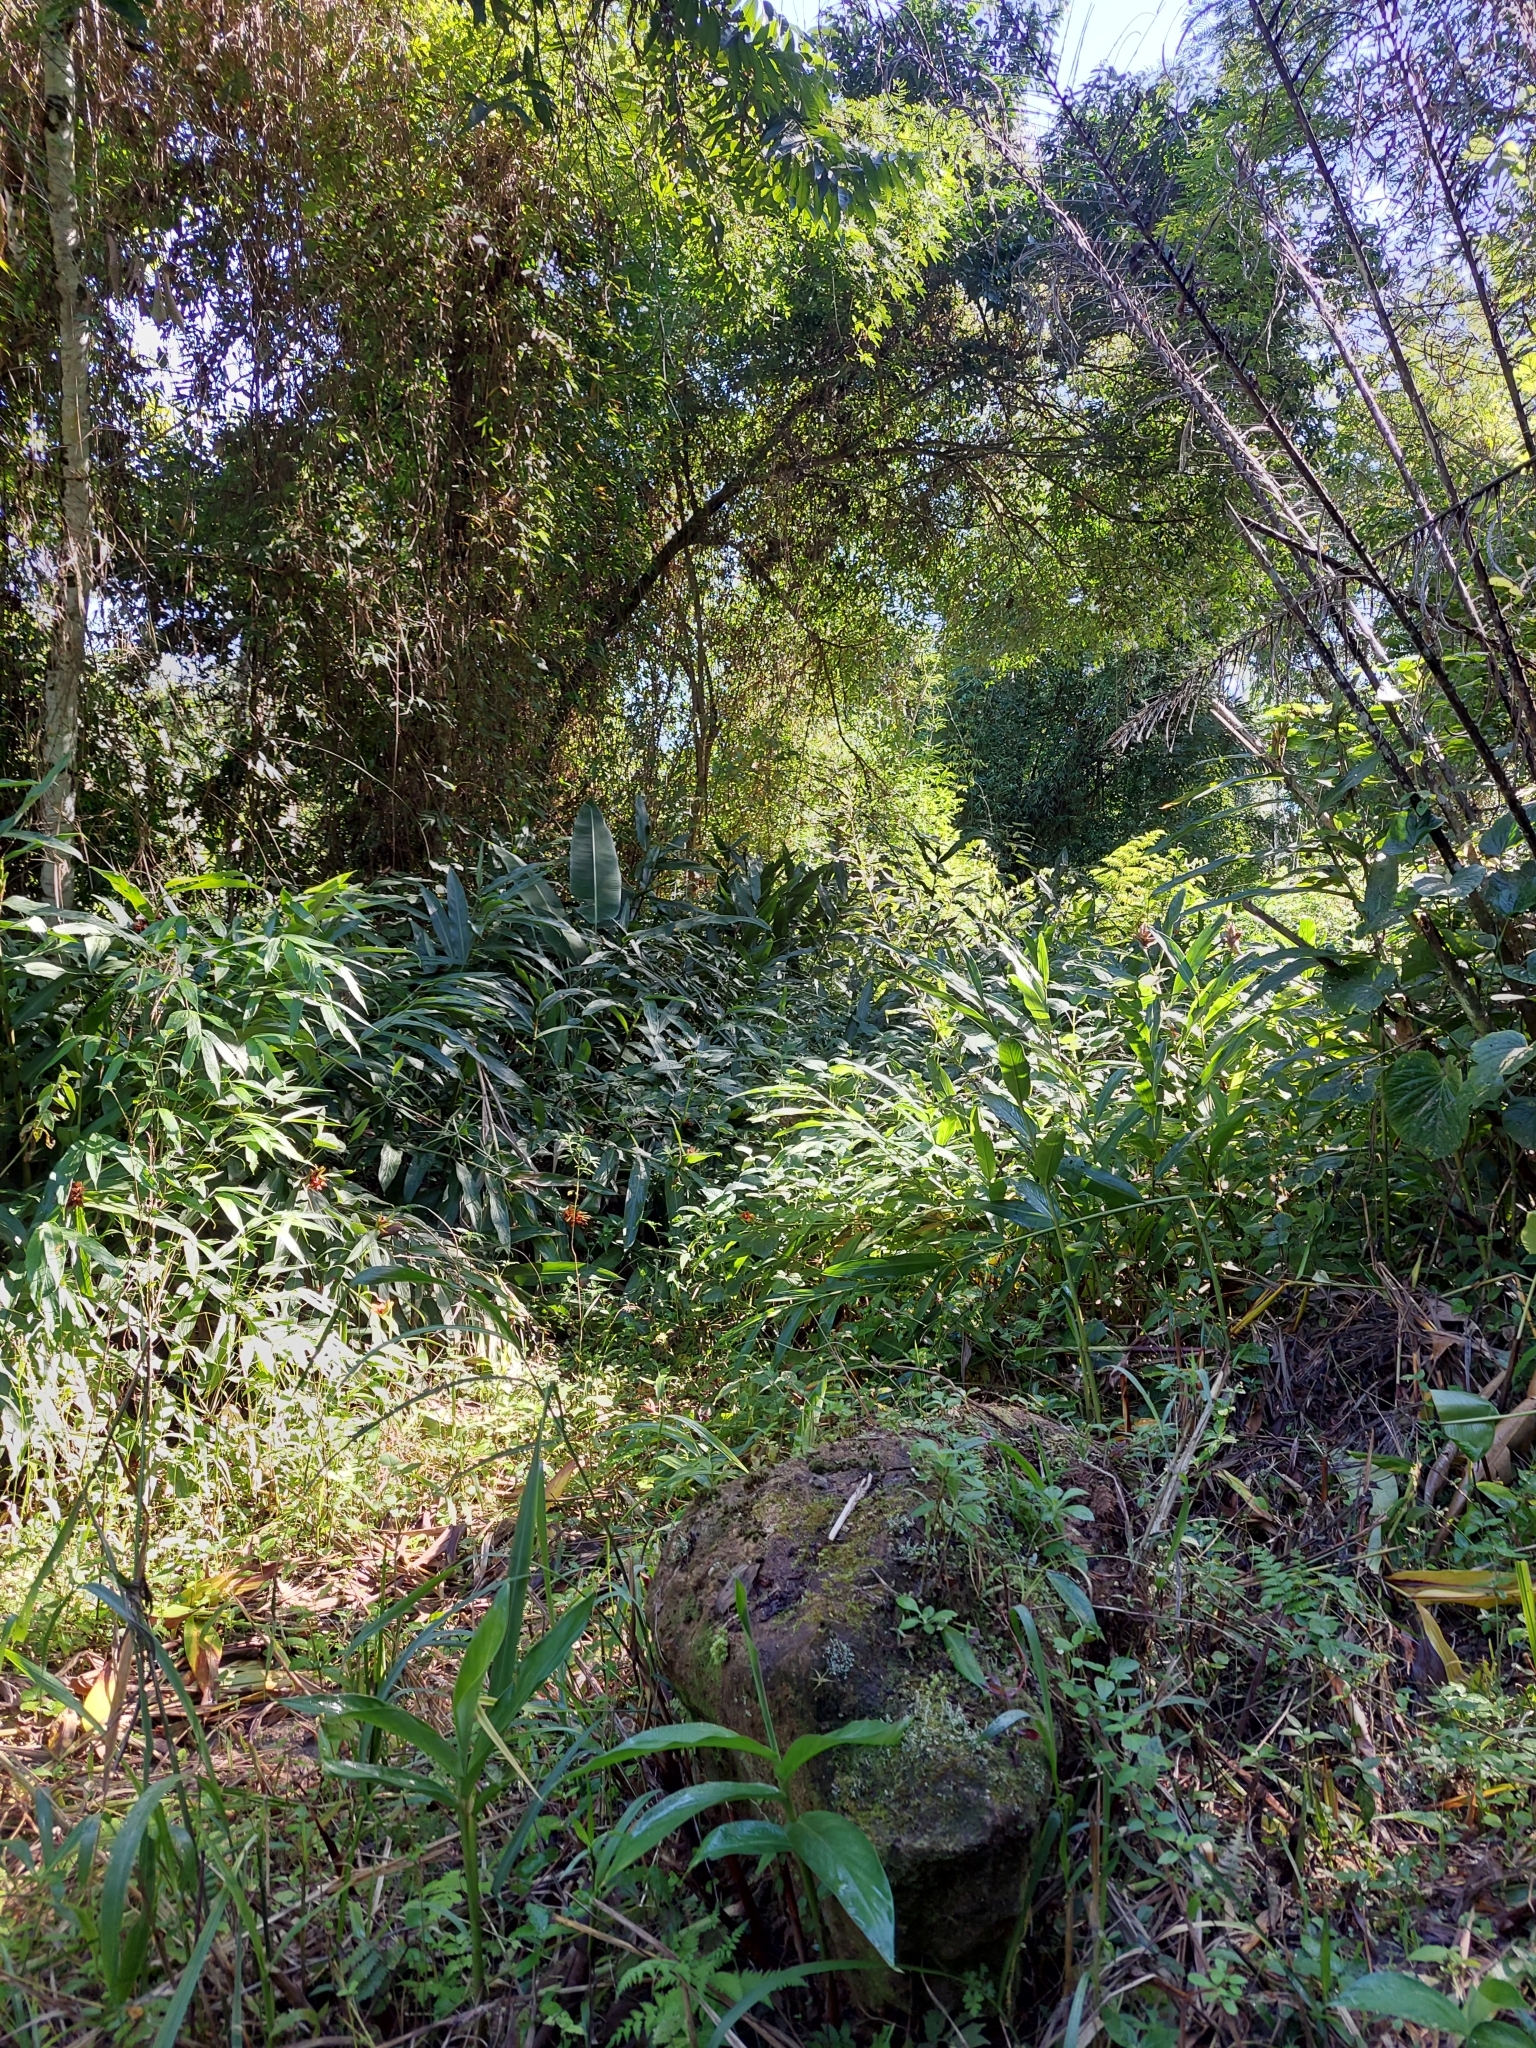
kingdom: Plantae
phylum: Tracheophyta
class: Liliopsida
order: Zingiberales
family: Zingiberaceae
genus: Hedychium
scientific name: Hedychium coronarium
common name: White garland-lily
